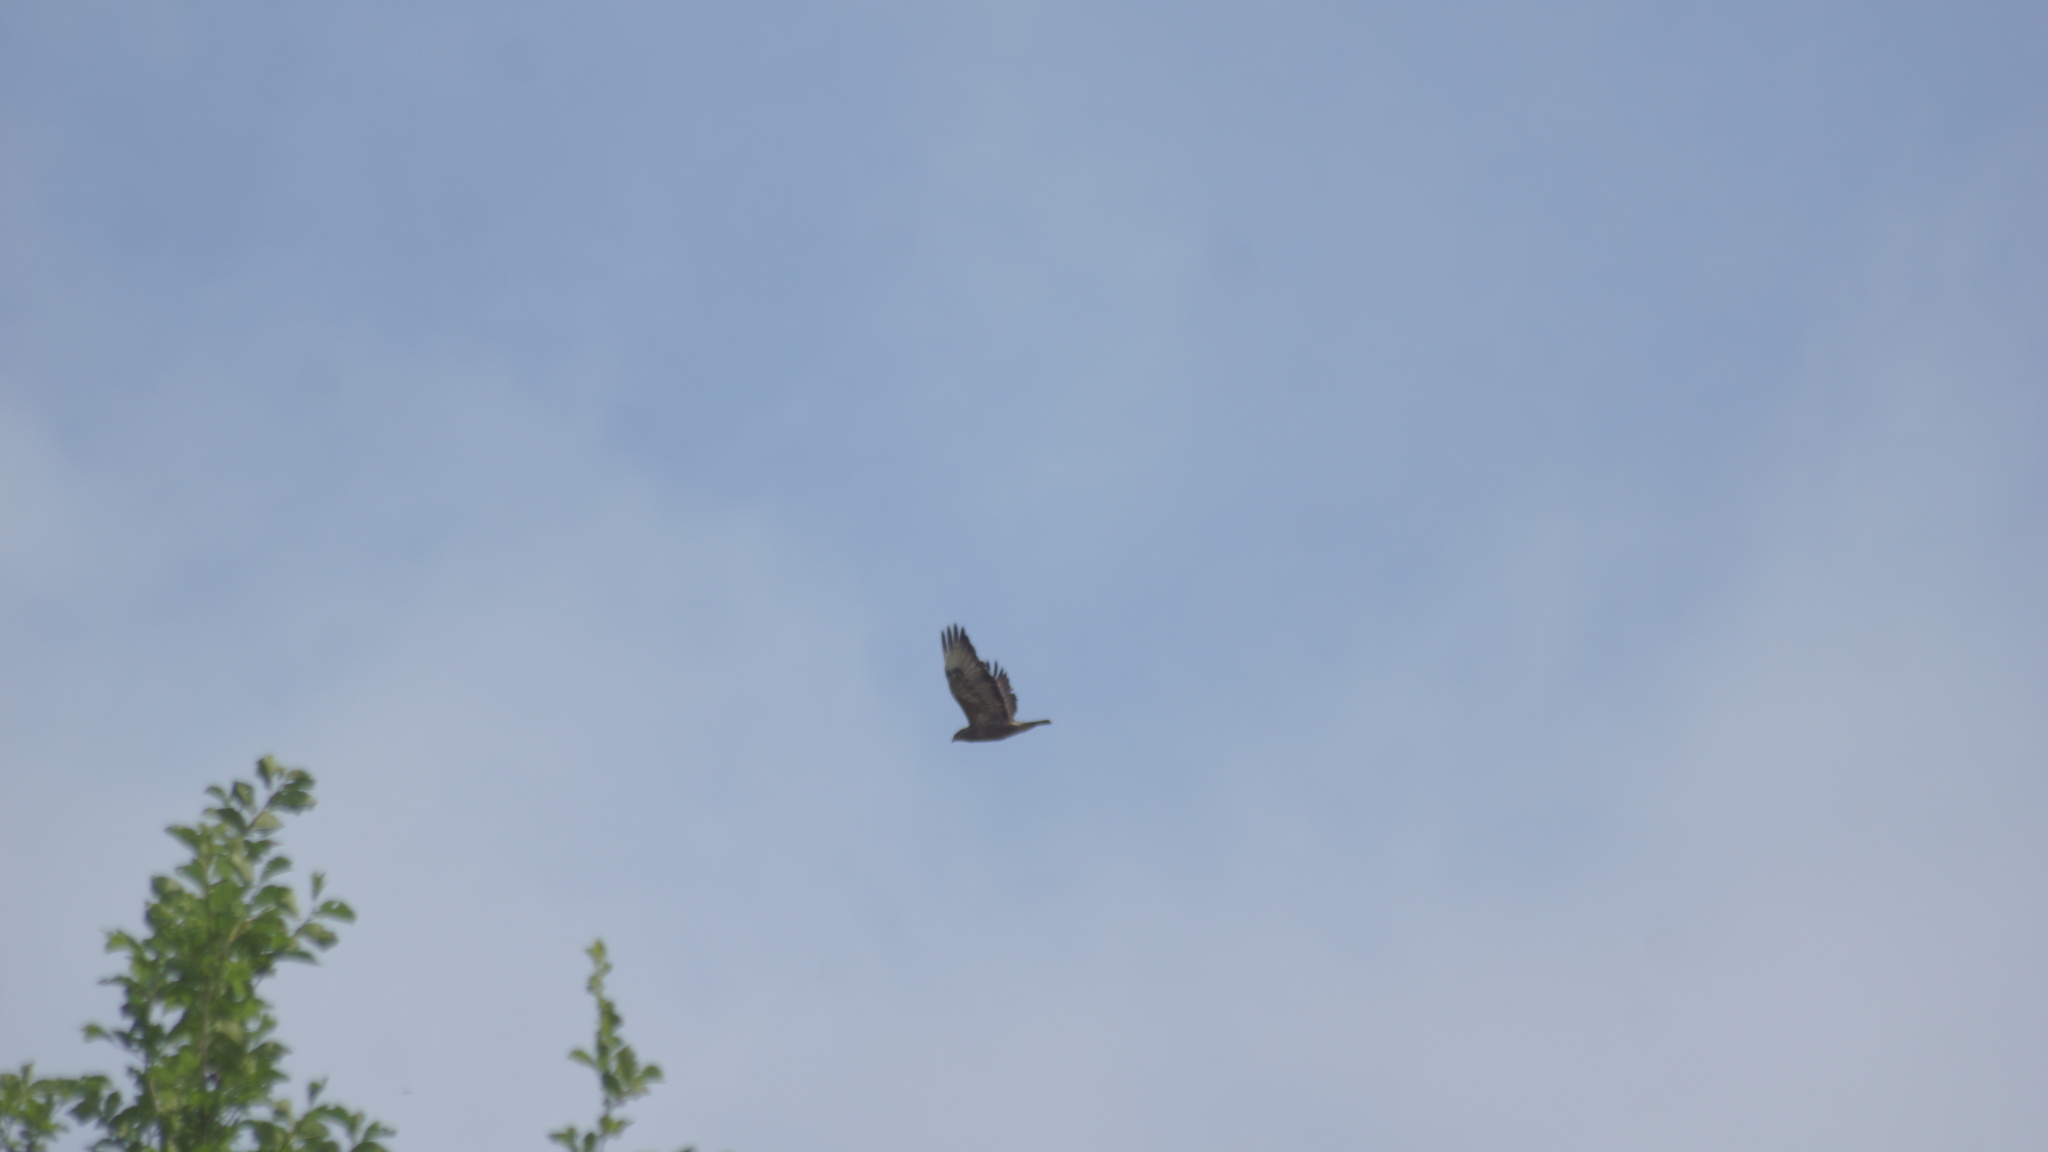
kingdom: Animalia
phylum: Chordata
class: Aves
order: Accipitriformes
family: Accipitridae
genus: Buteo
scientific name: Buteo buteo
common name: Common buzzard
